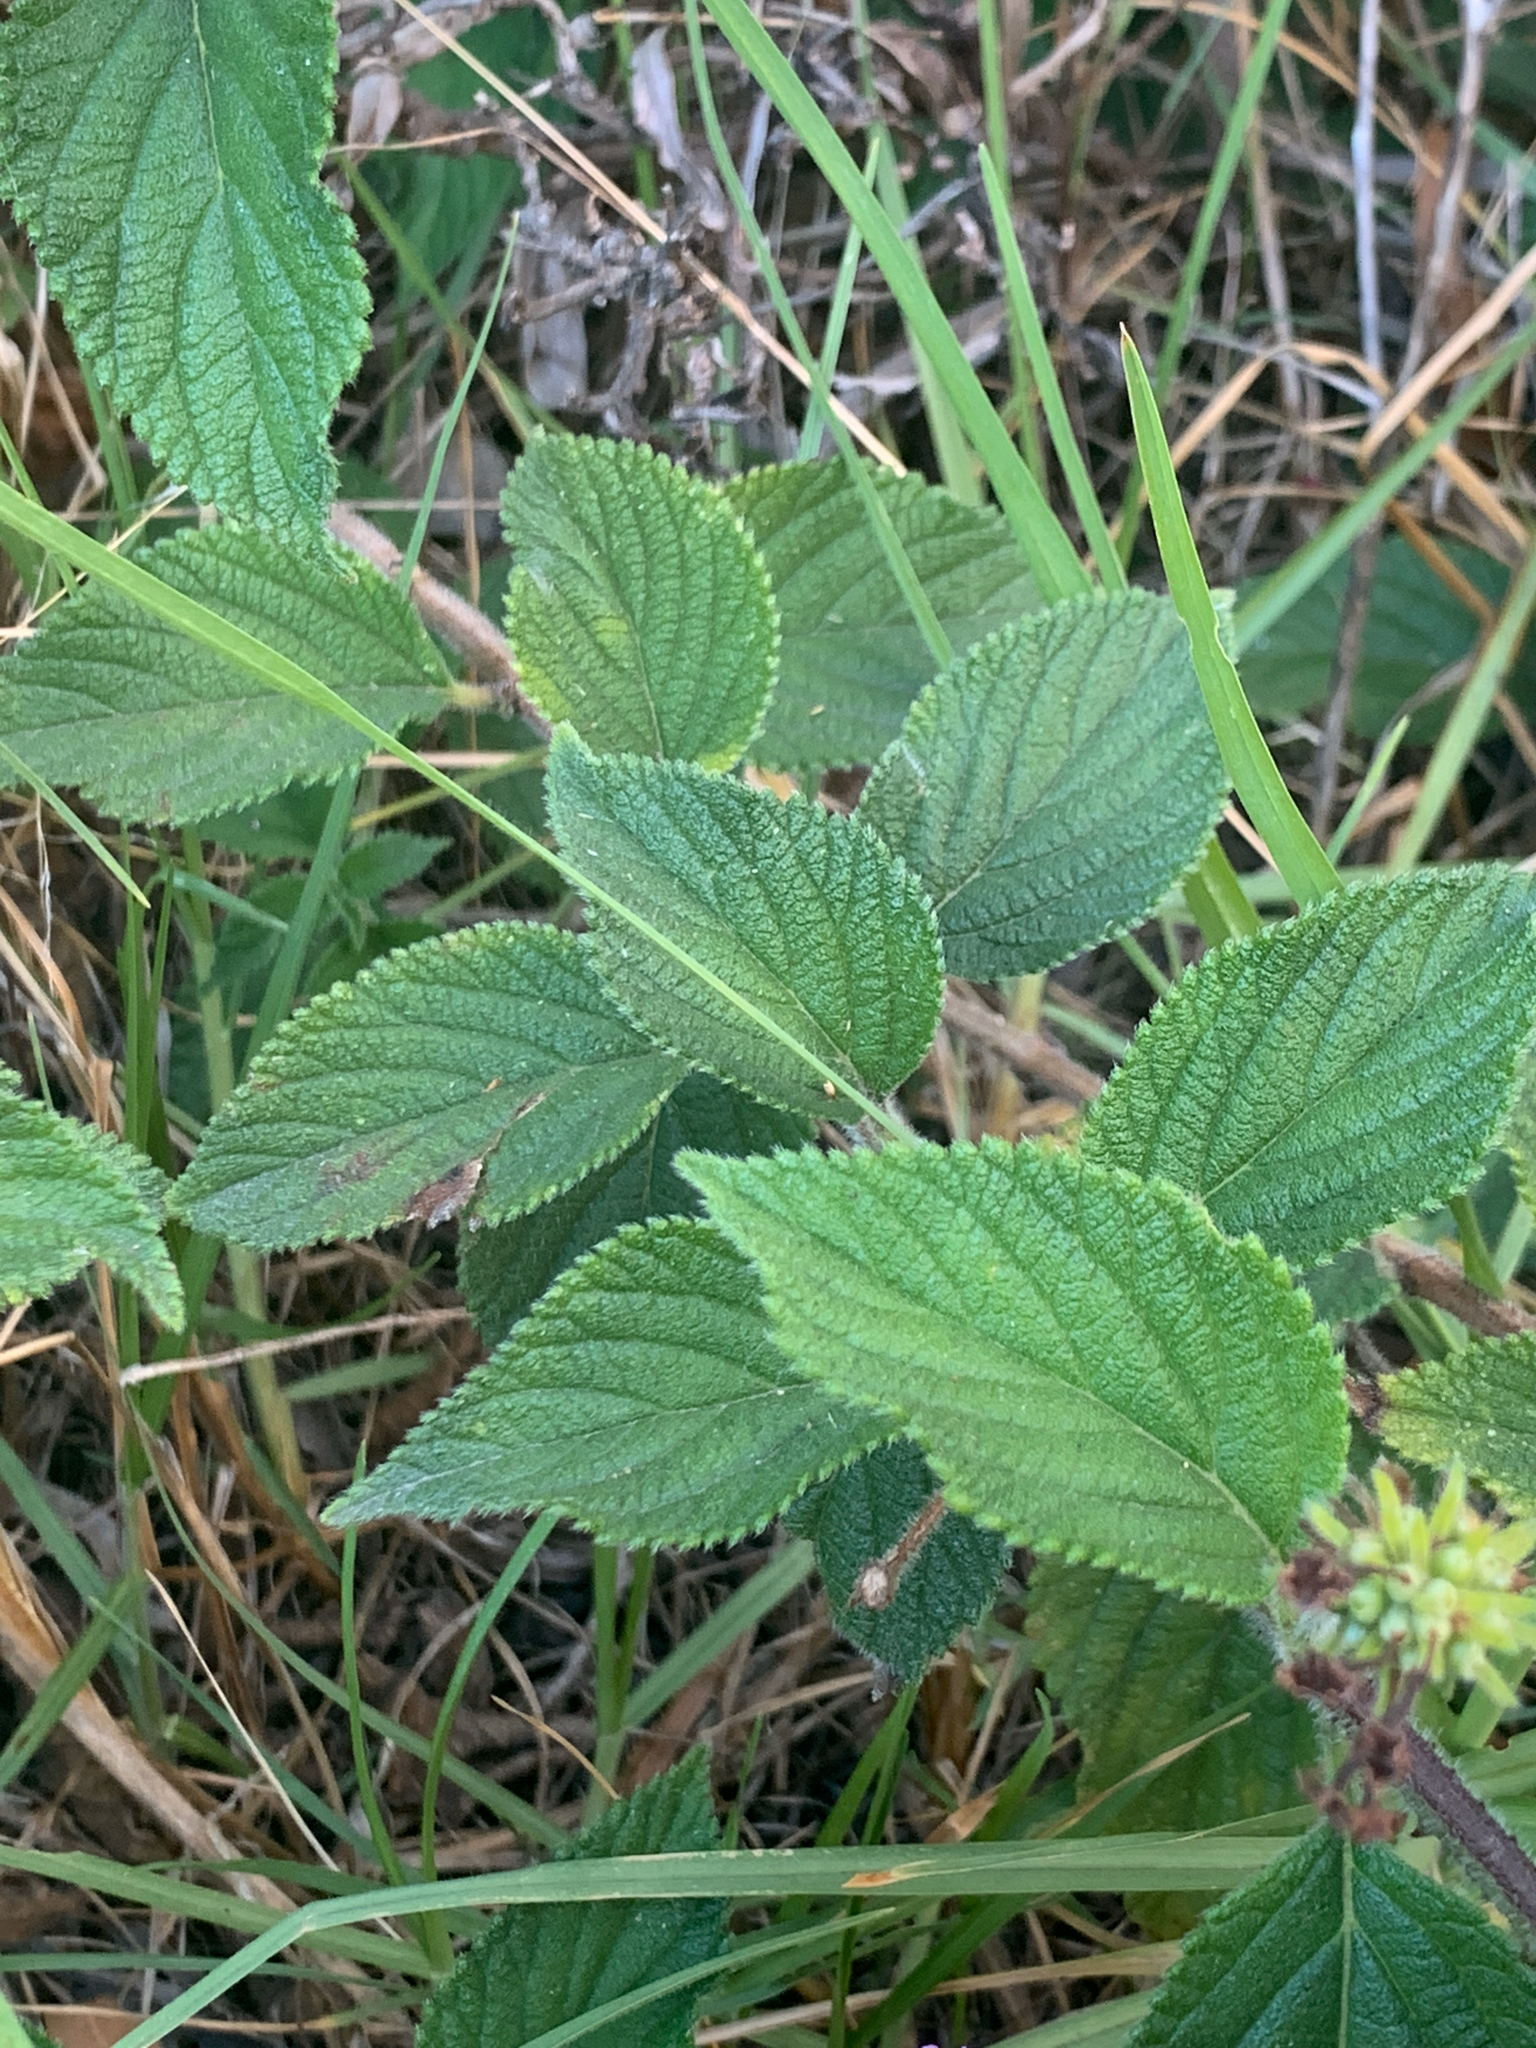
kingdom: Plantae
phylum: Tracheophyta
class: Magnoliopsida
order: Lamiales
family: Verbenaceae
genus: Lantana
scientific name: Lantana camara
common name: Lantana
